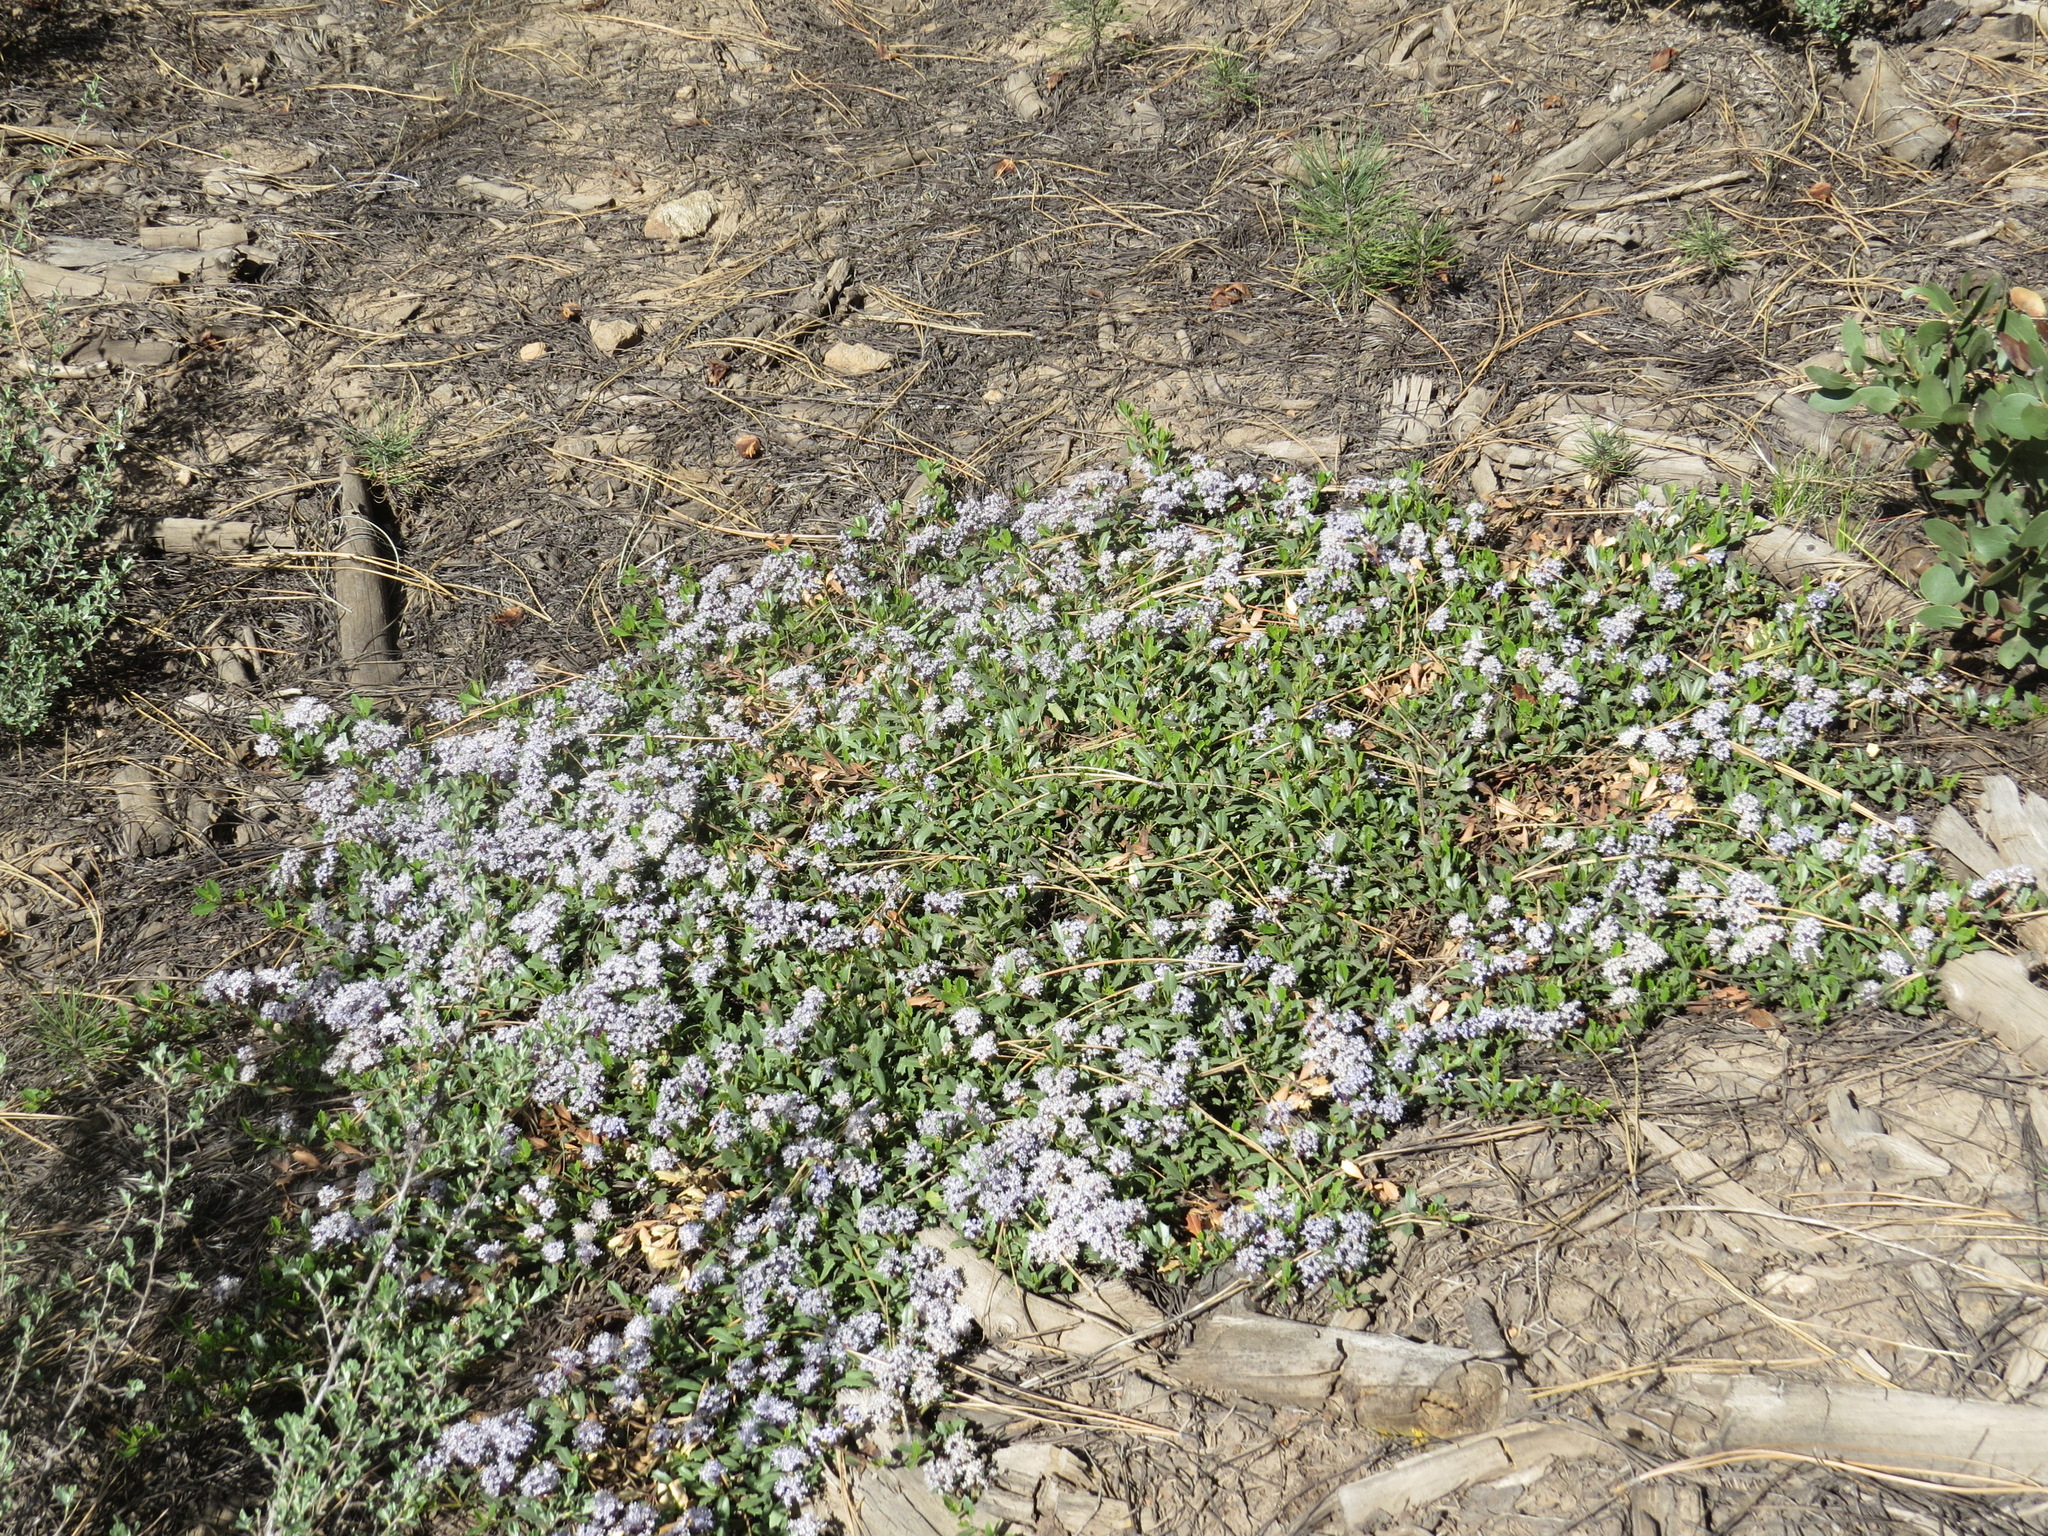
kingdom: Plantae
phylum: Tracheophyta
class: Magnoliopsida
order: Rosales
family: Rhamnaceae
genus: Ceanothus
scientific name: Ceanothus prostratus
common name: Mahala-mat
